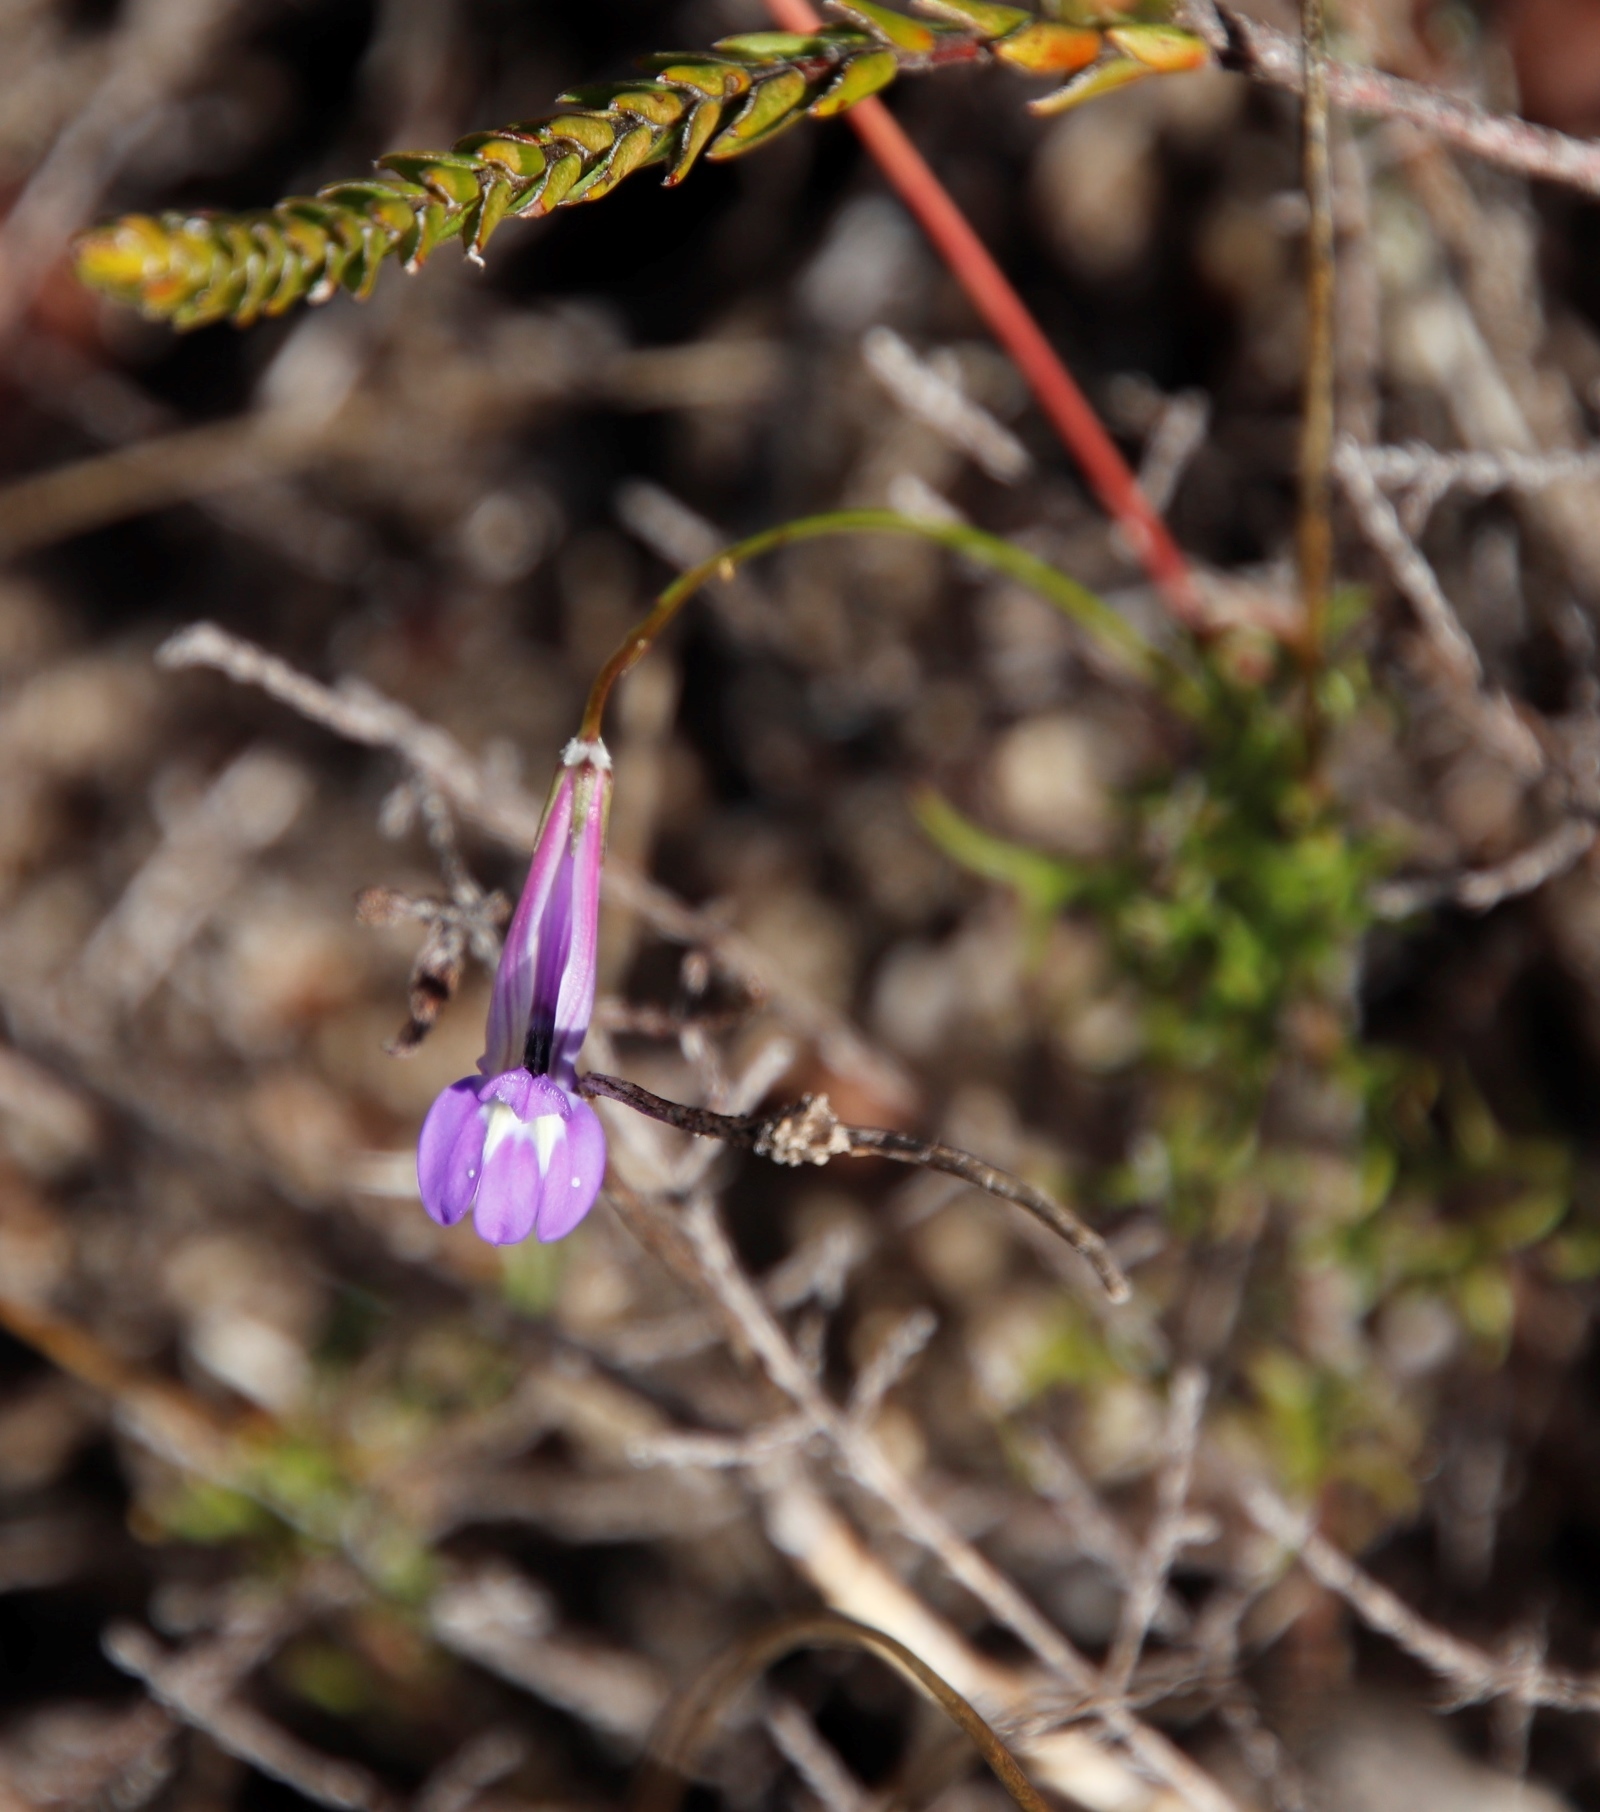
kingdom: Plantae
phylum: Tracheophyta
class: Magnoliopsida
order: Asterales
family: Campanulaceae
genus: Lobelia
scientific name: Lobelia coronopifolia
